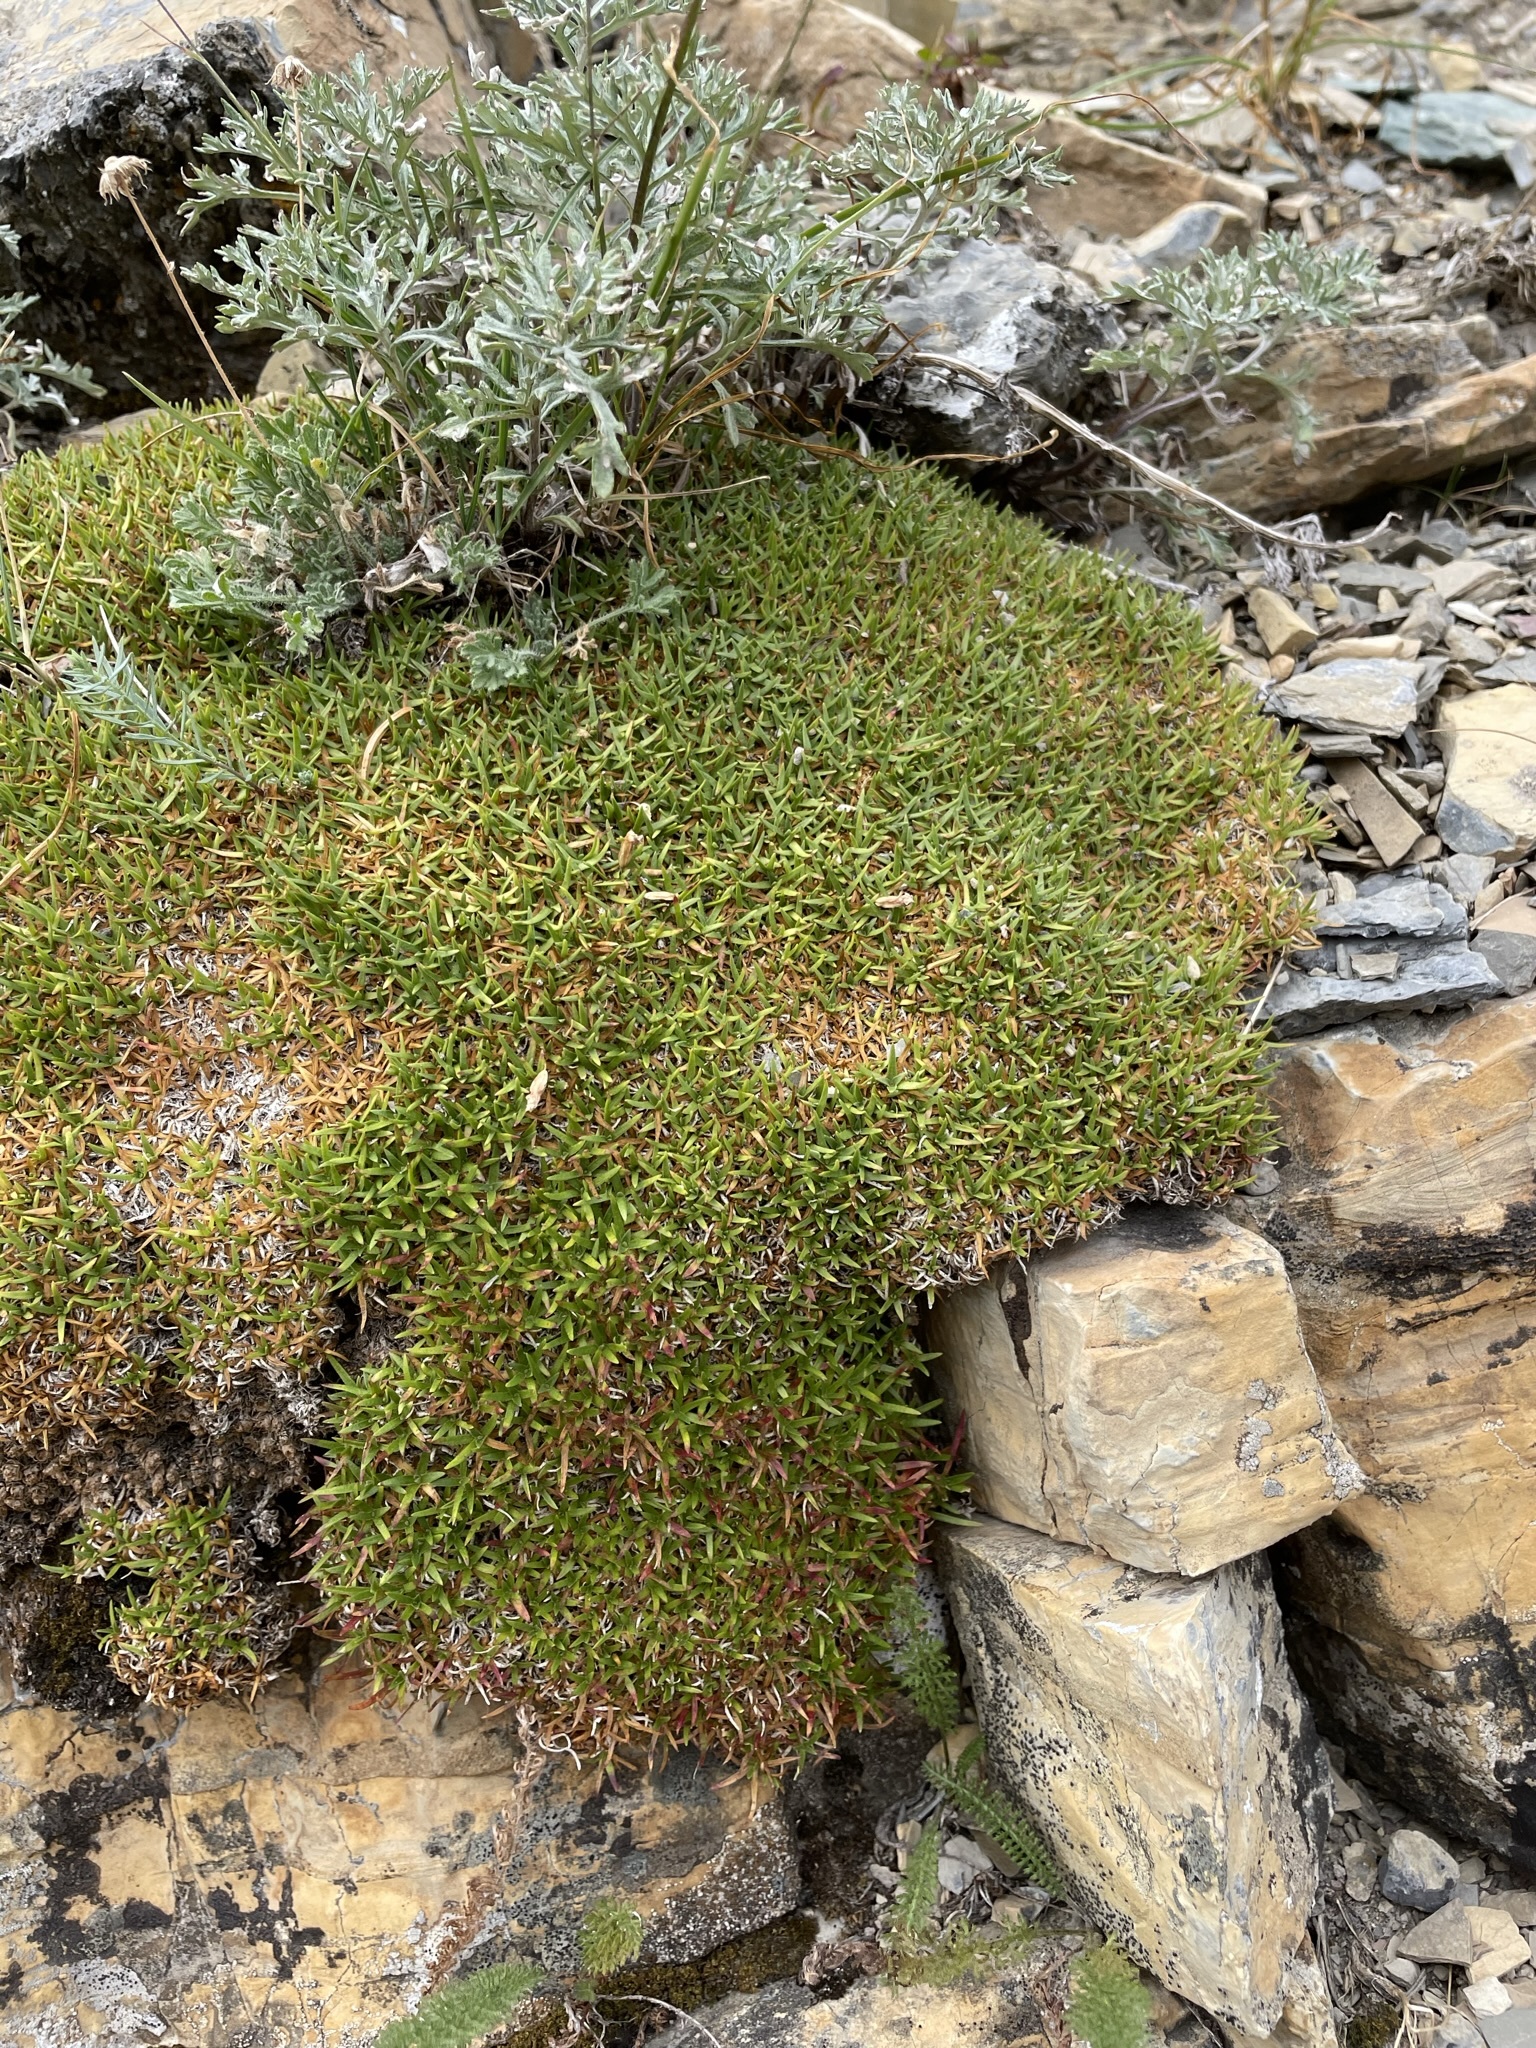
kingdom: Plantae
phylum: Tracheophyta
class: Magnoliopsida
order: Caryophyllales
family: Caryophyllaceae
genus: Silene
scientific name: Silene acaulis
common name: Moss campion
